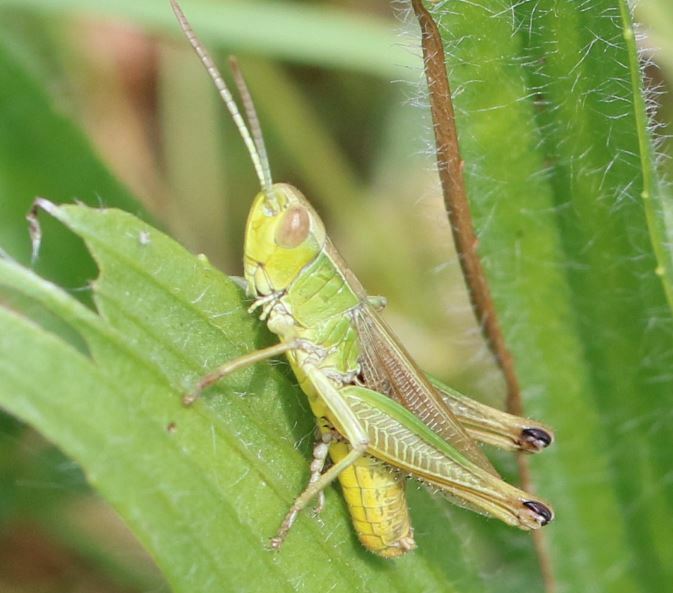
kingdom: Animalia
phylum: Arthropoda
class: Insecta
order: Orthoptera
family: Acrididae
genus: Pseudochorthippus
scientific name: Pseudochorthippus parallelus
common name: Meadow grasshopper
